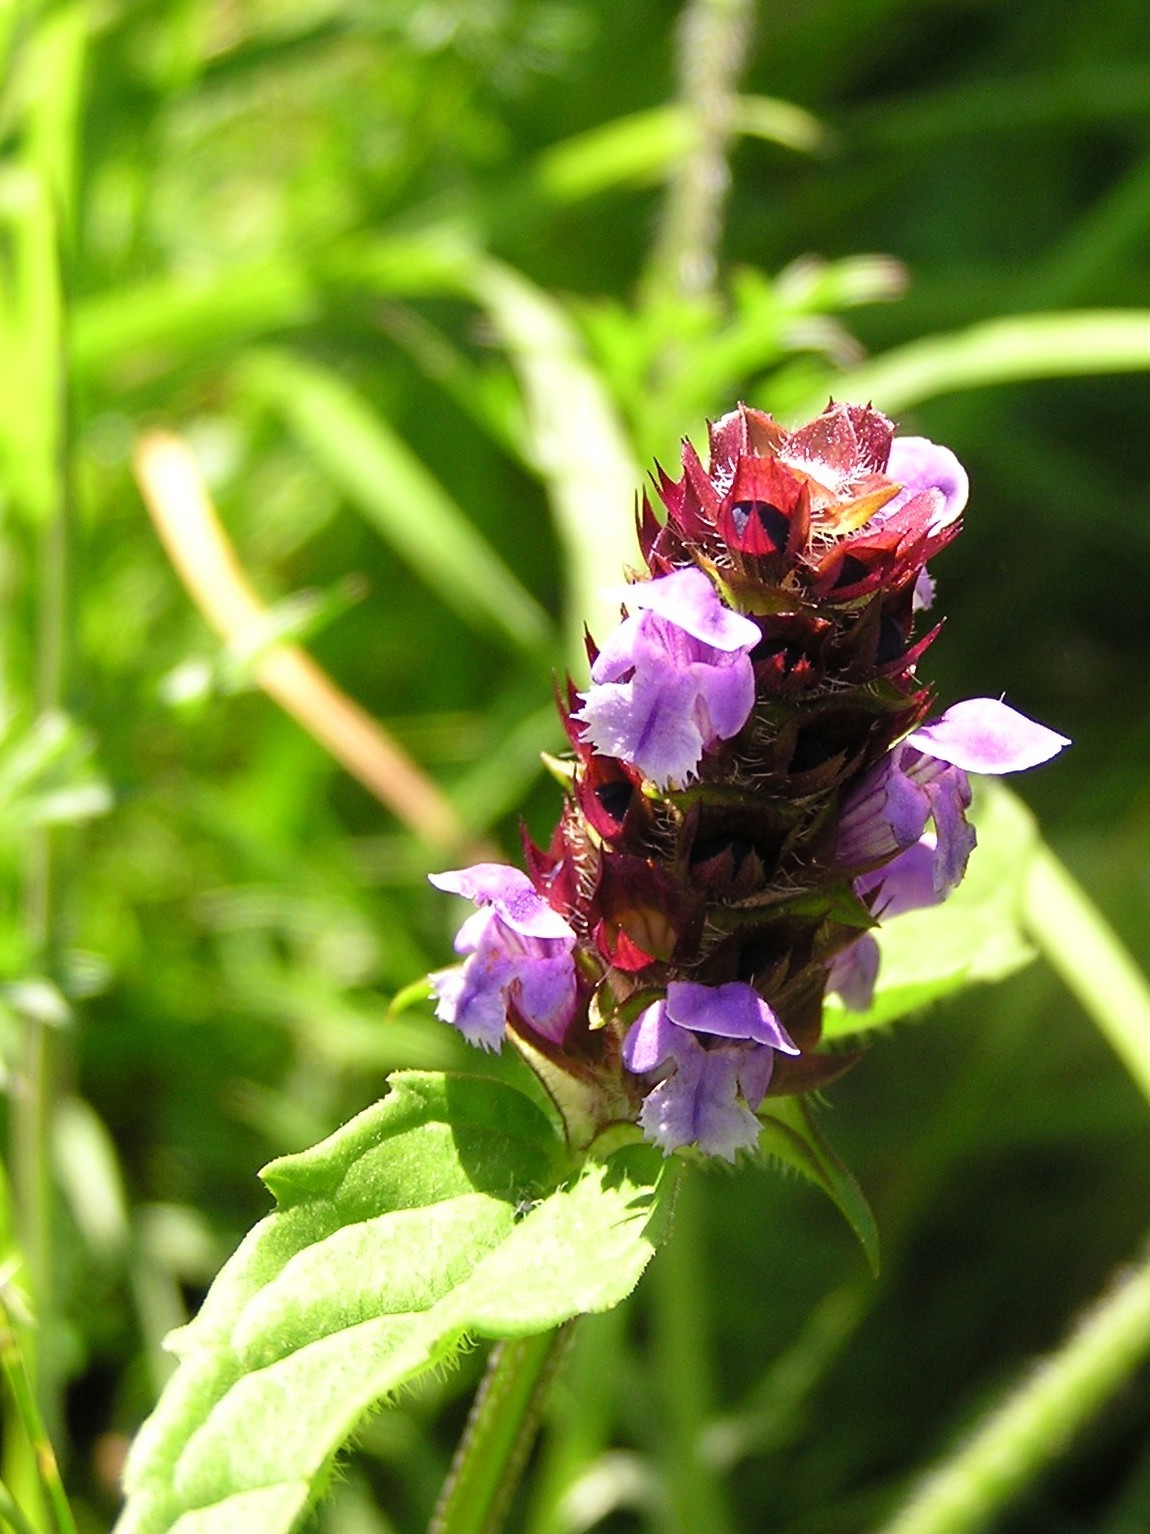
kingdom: Plantae
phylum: Tracheophyta
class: Magnoliopsida
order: Lamiales
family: Lamiaceae
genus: Prunella
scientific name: Prunella vulgaris
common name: Heal-all
